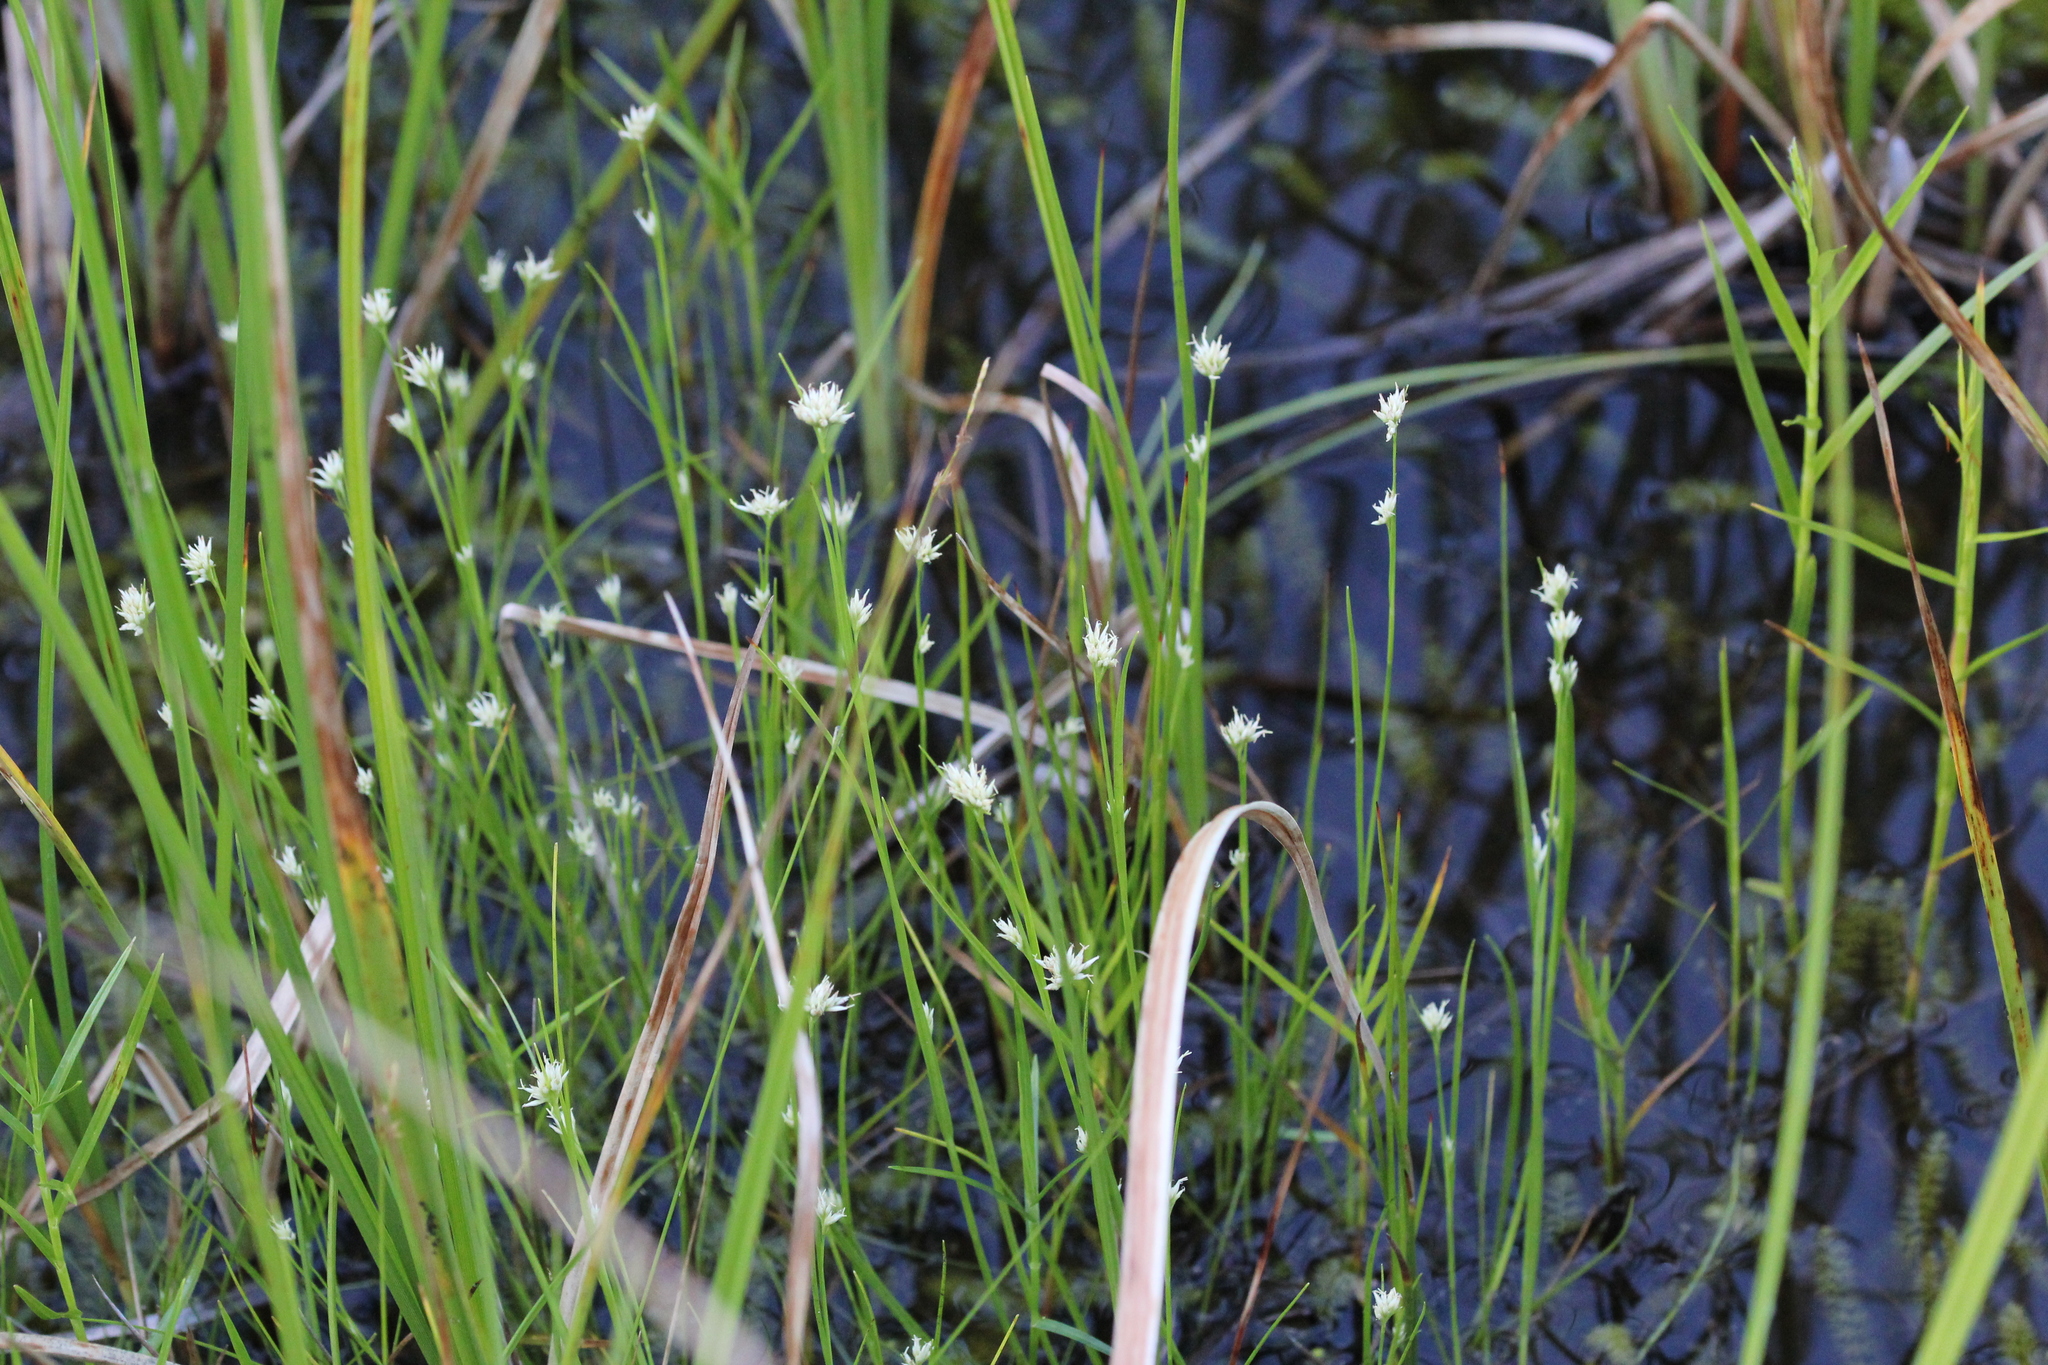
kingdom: Plantae
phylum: Tracheophyta
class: Liliopsida
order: Poales
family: Cyperaceae
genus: Rhynchospora
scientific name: Rhynchospora alba
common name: White beak-sedge
